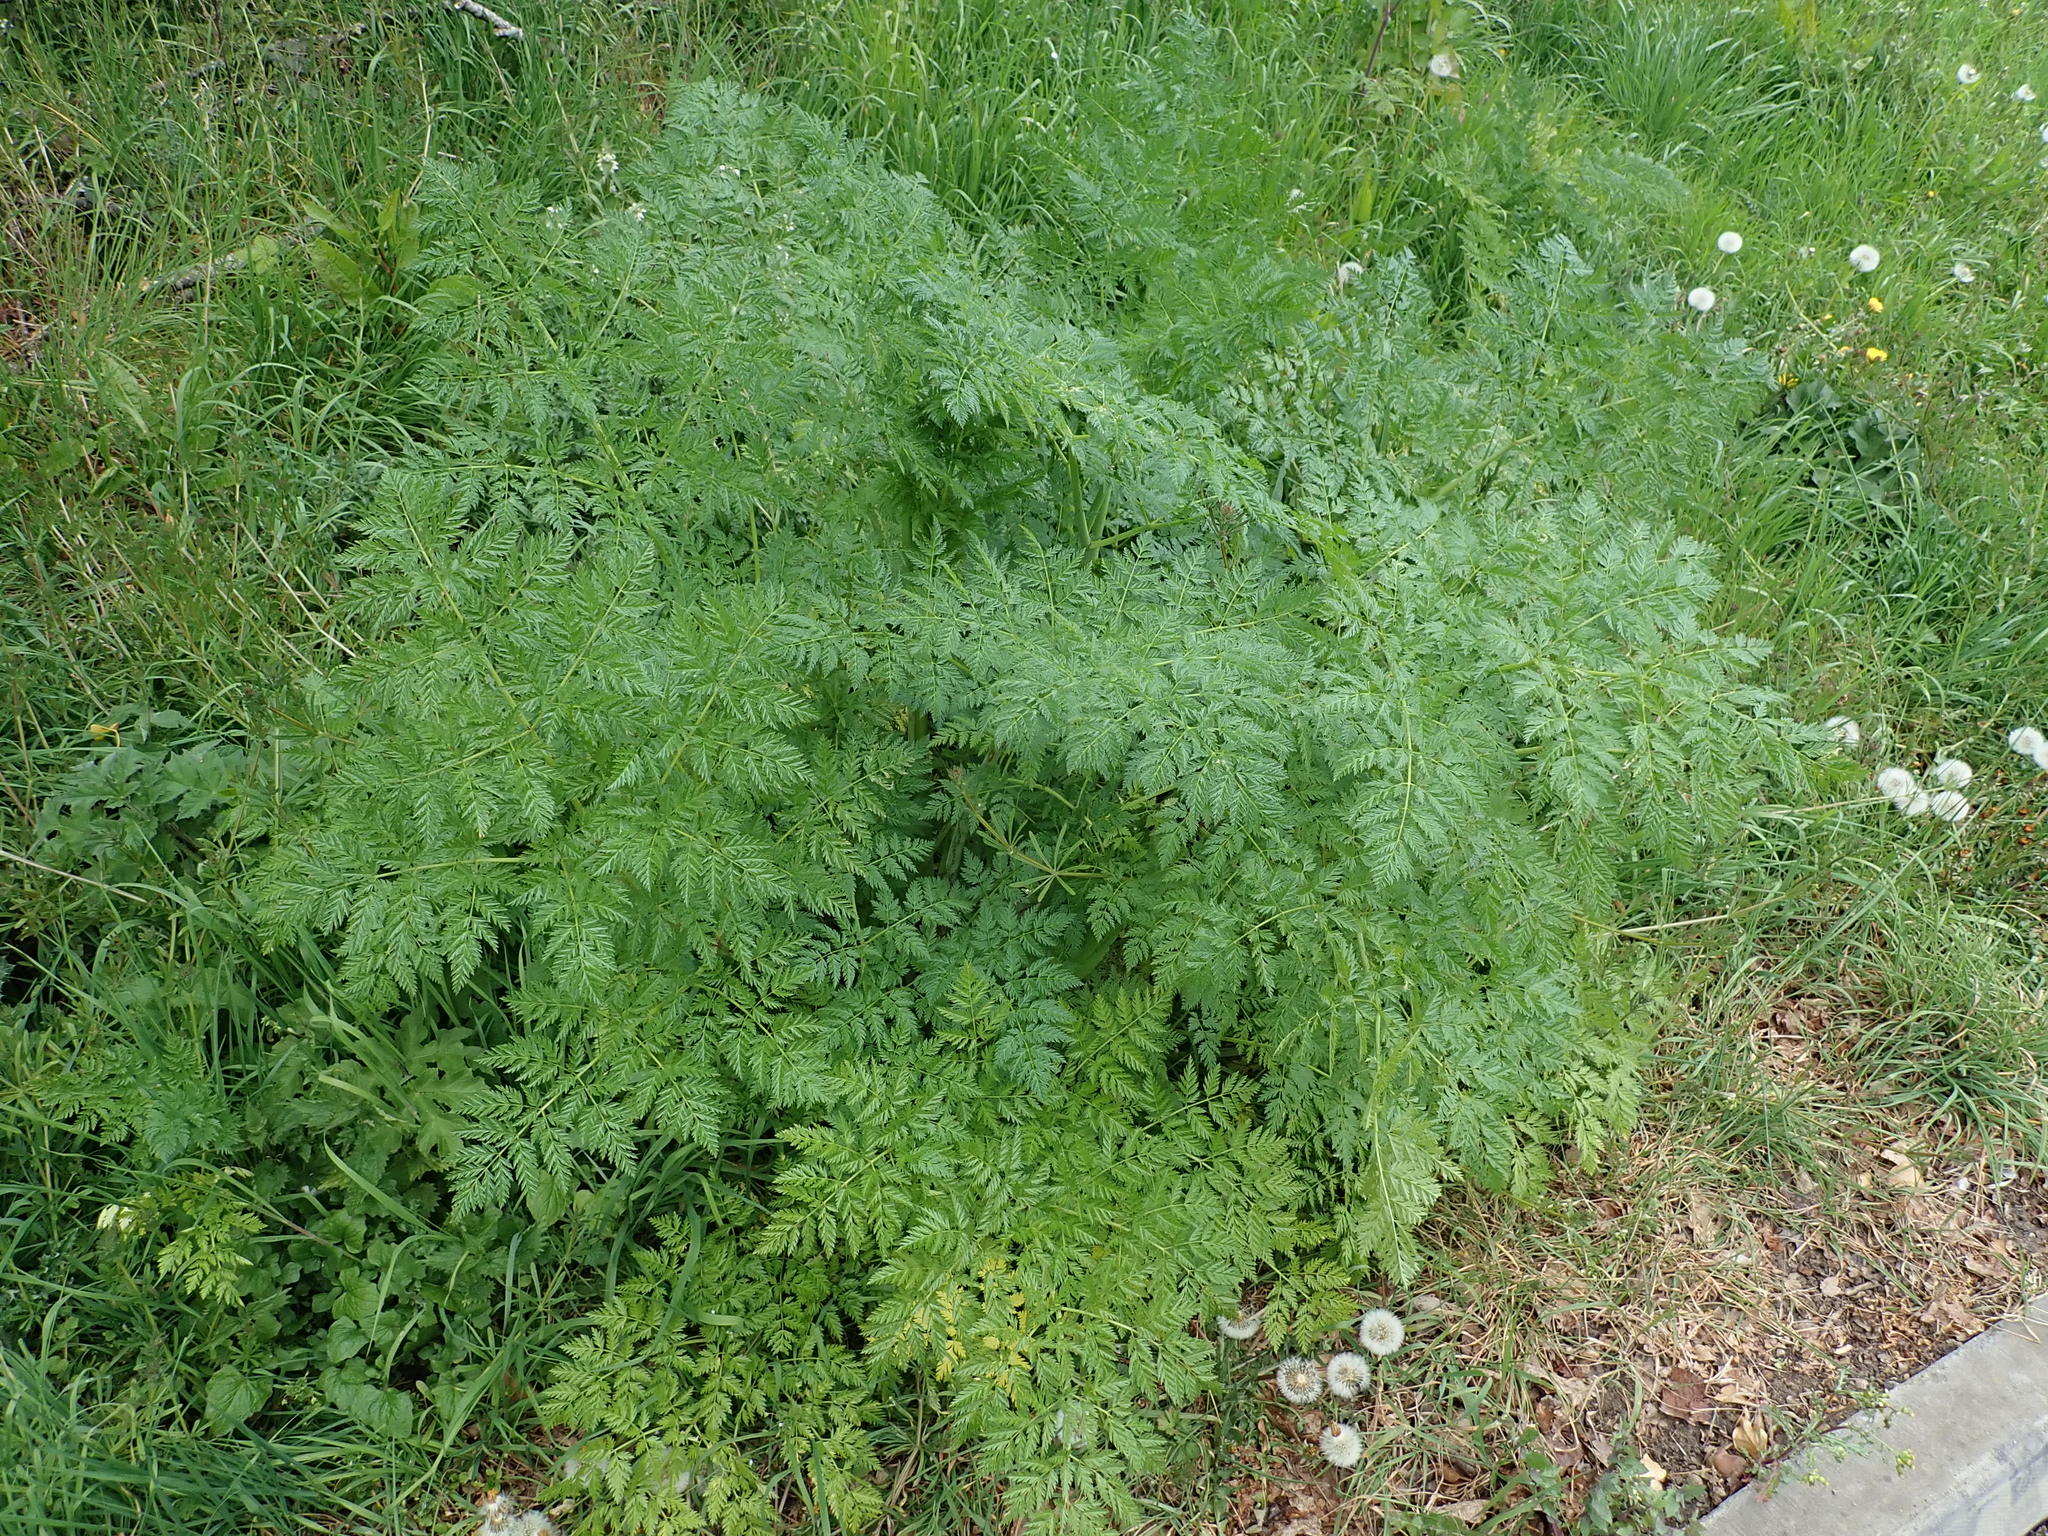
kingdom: Plantae
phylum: Tracheophyta
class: Magnoliopsida
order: Apiales
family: Apiaceae
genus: Conium
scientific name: Conium maculatum
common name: Hemlock
